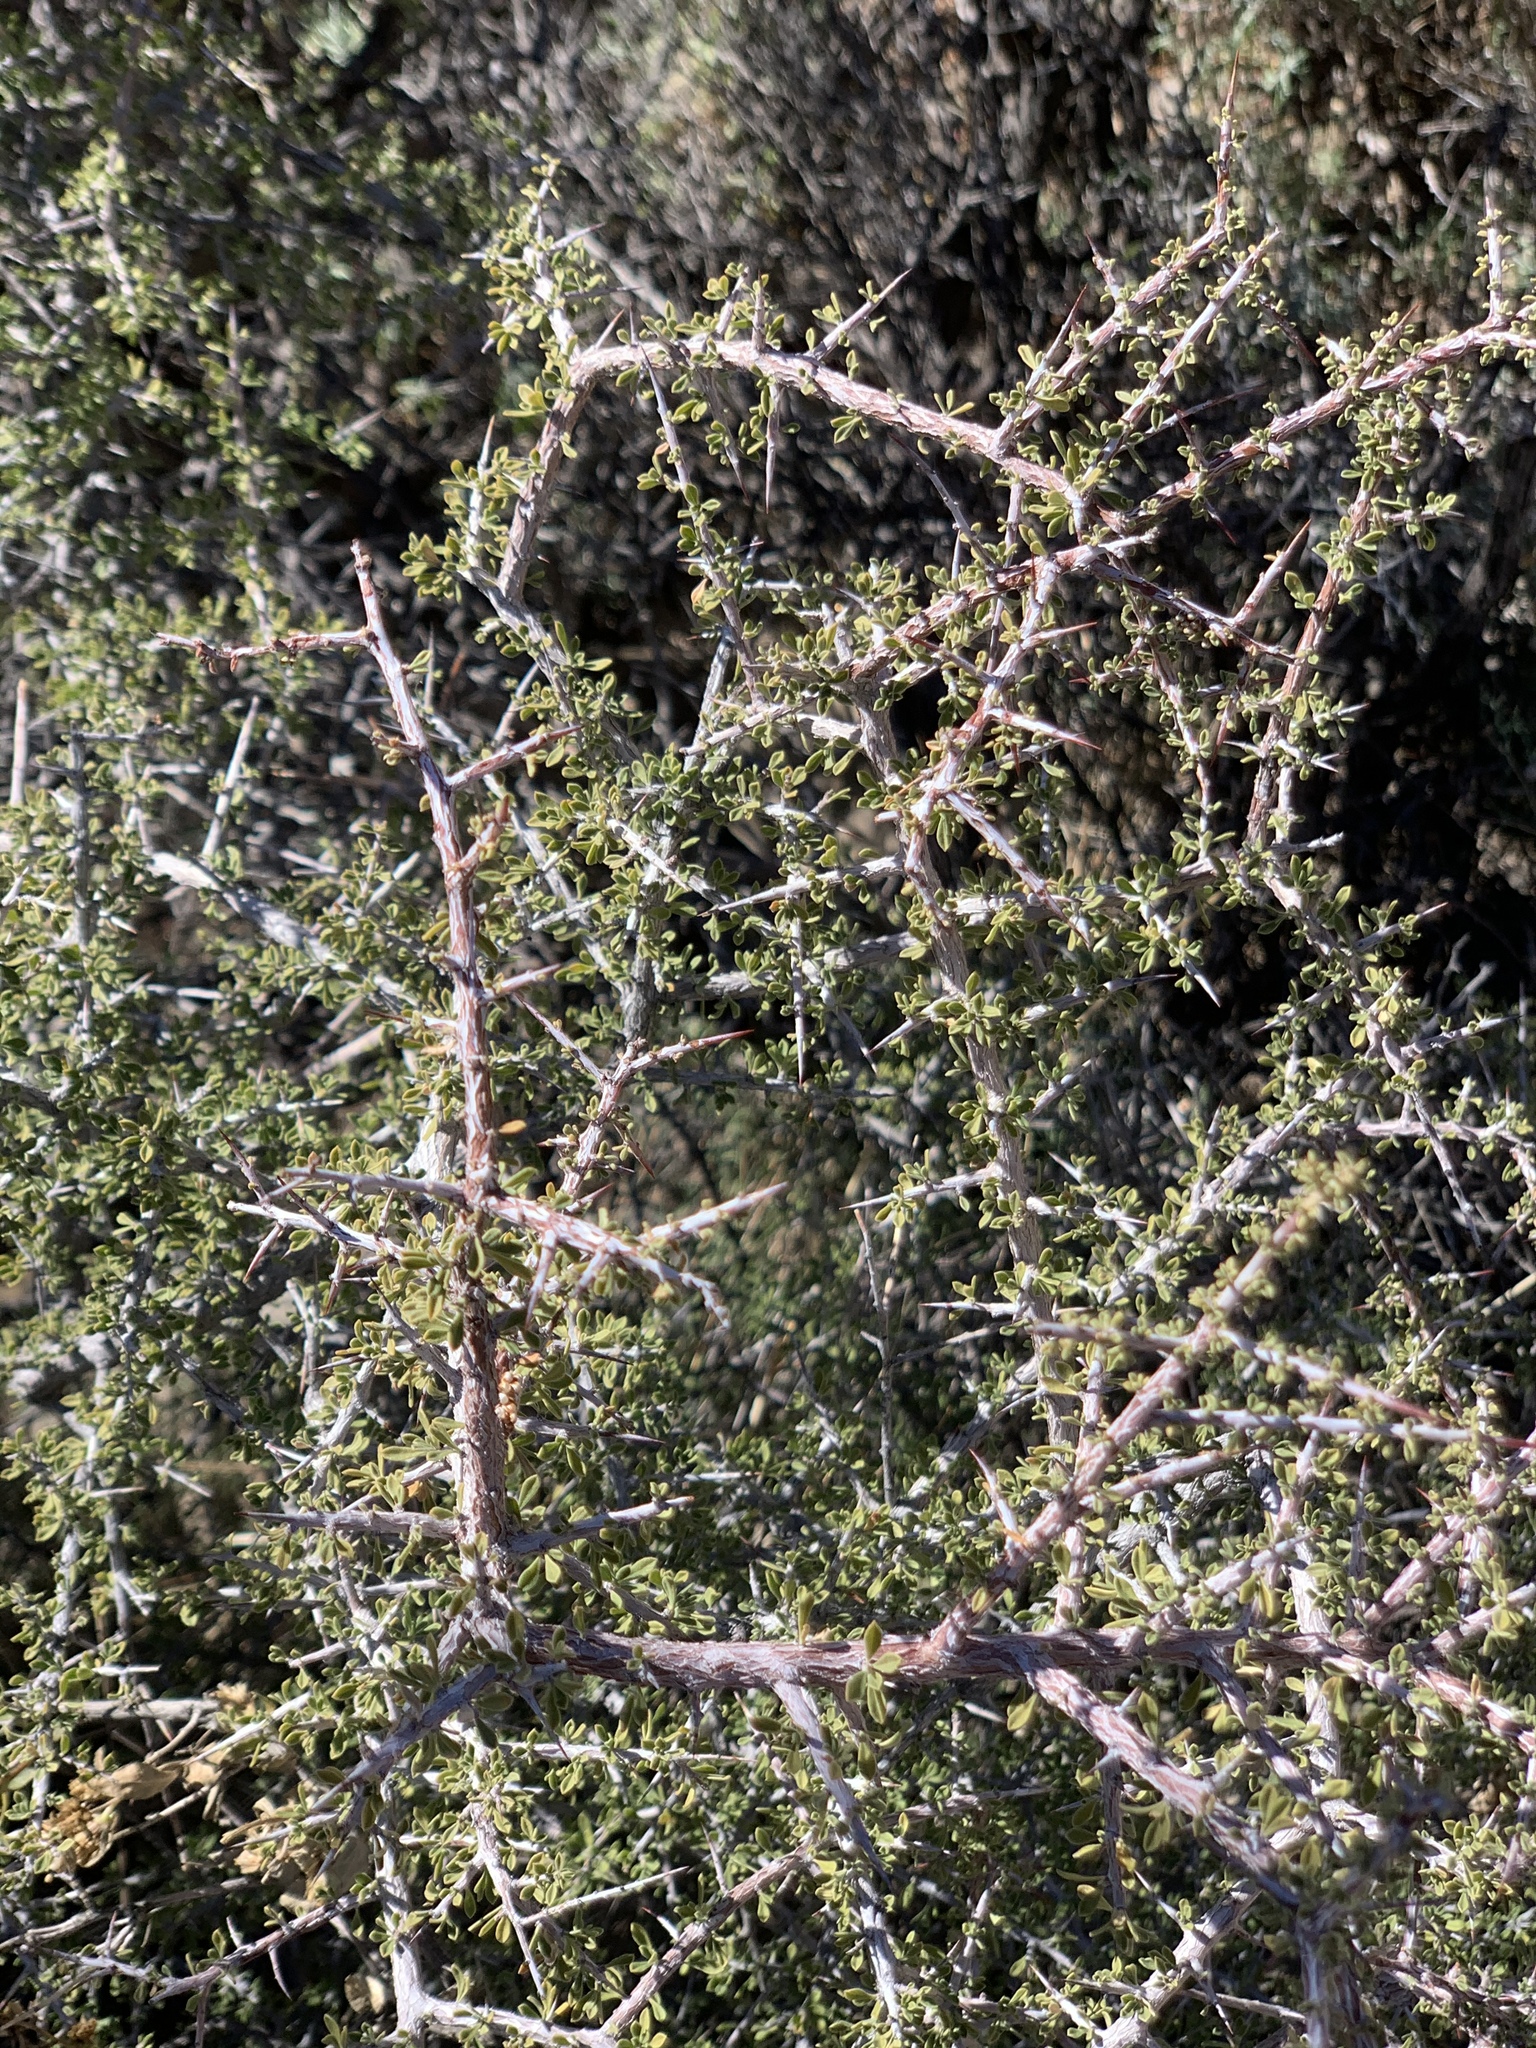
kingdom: Plantae
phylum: Tracheophyta
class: Magnoliopsida
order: Rosales
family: Rhamnaceae
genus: Condalia
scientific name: Condalia warnockii
